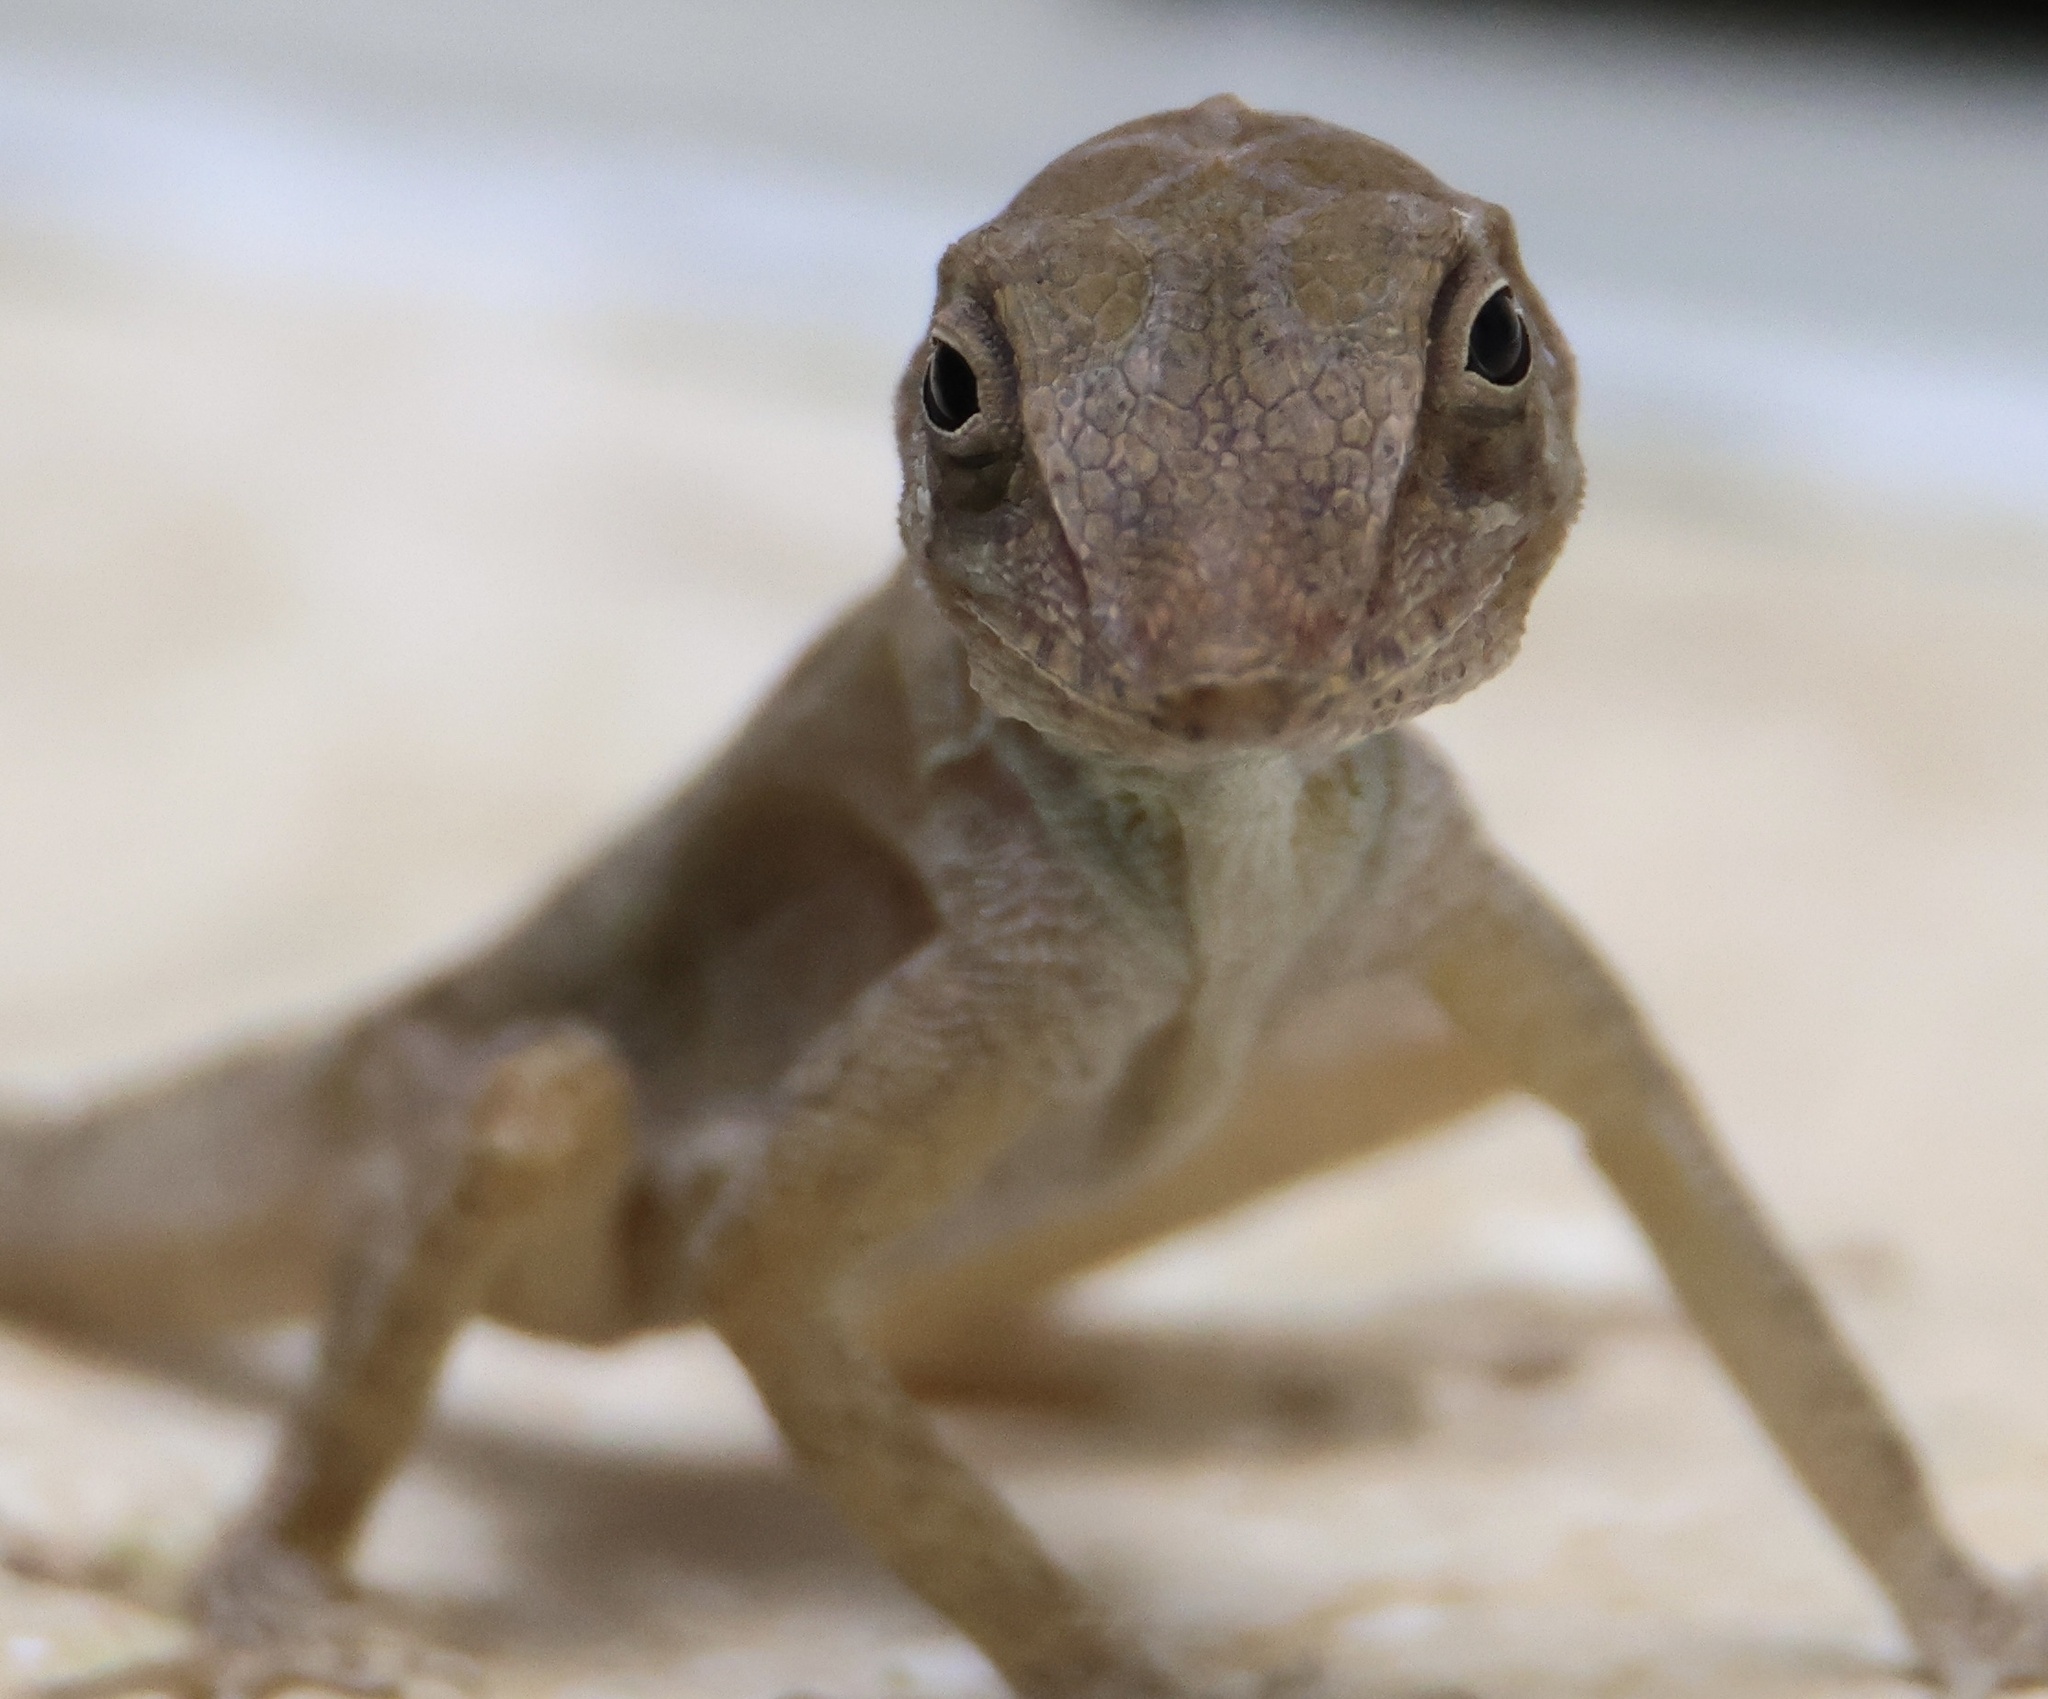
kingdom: Animalia
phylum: Chordata
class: Squamata
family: Dactyloidae
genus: Anolis
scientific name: Anolis hispaniolae
